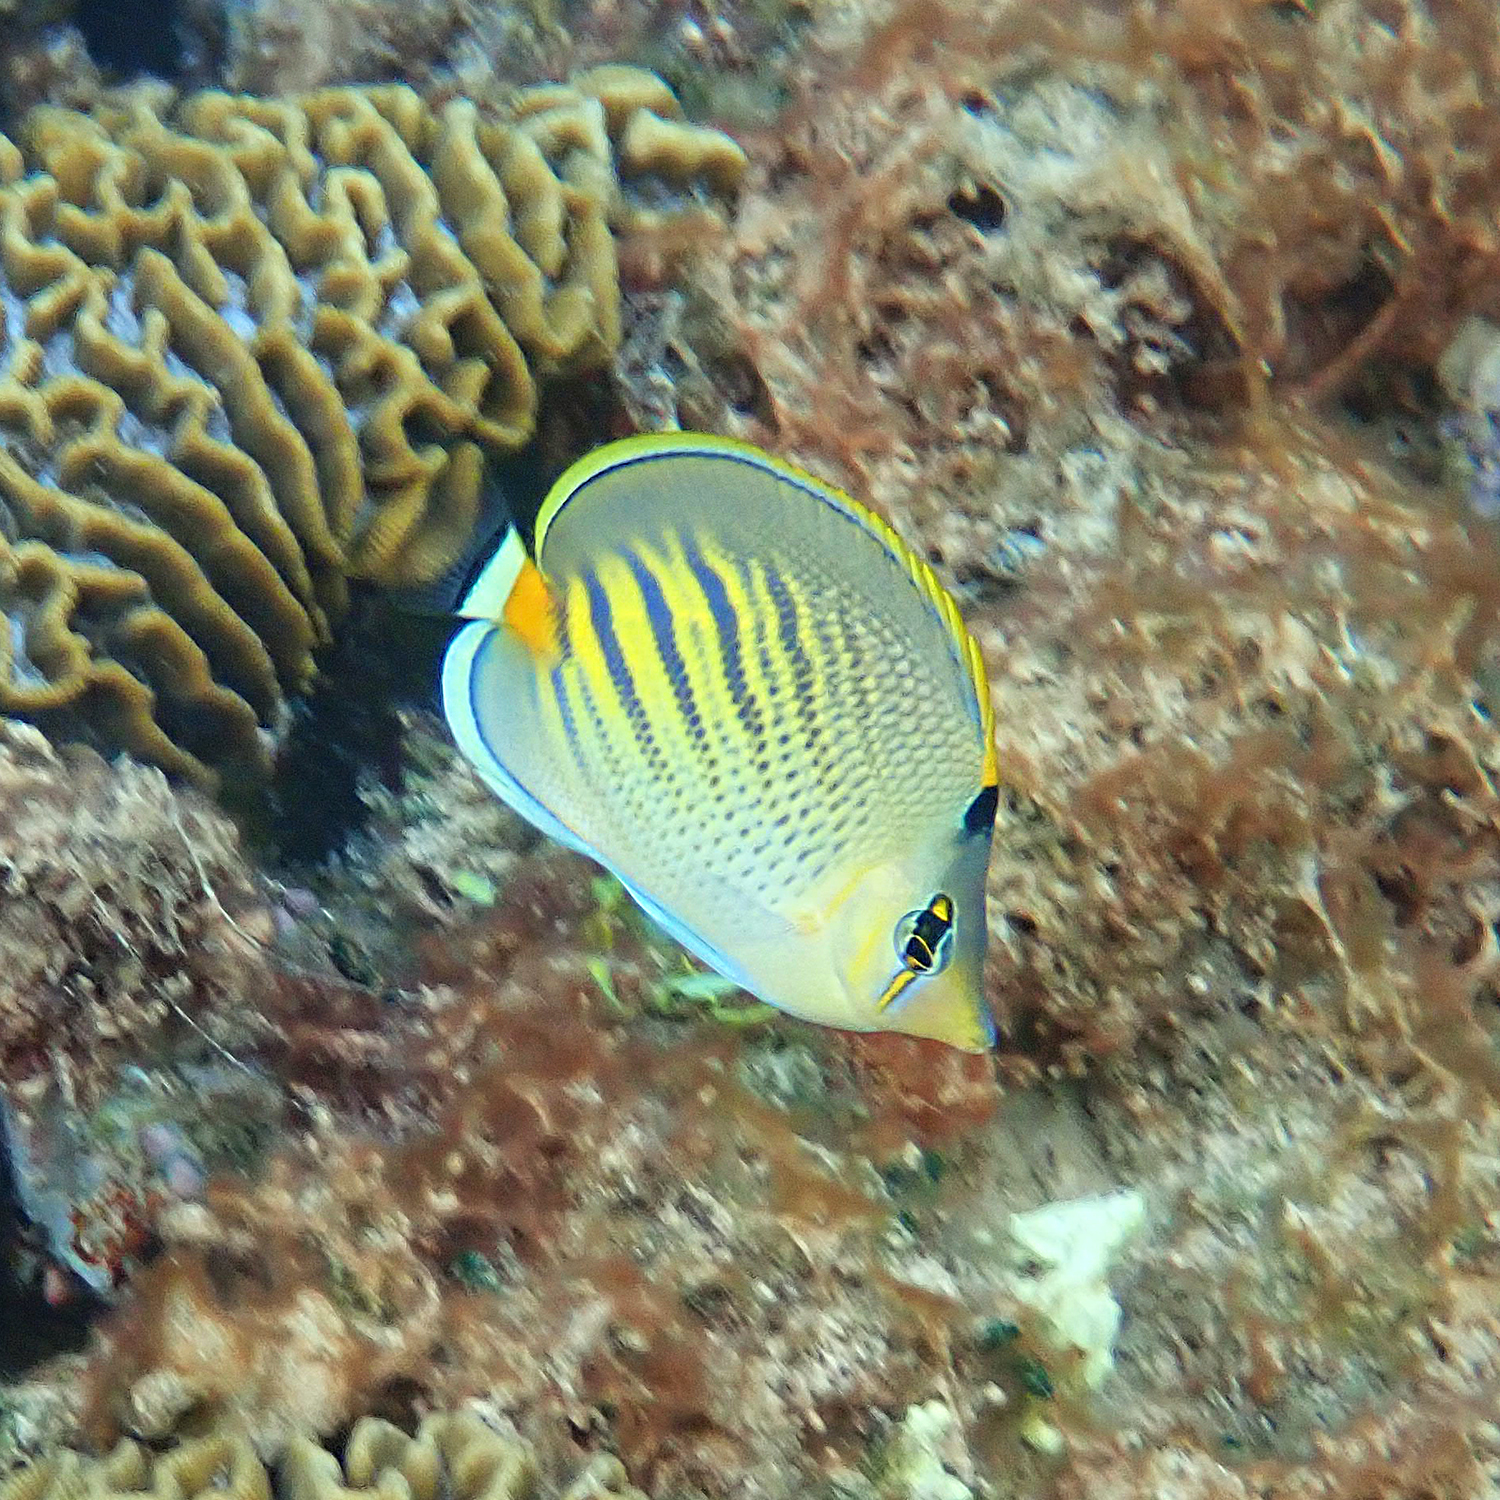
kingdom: Animalia
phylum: Chordata
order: Perciformes
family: Chaetodontidae
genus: Chaetodon
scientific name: Chaetodon pelewensis
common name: Dot-and-dash butterflyfish
